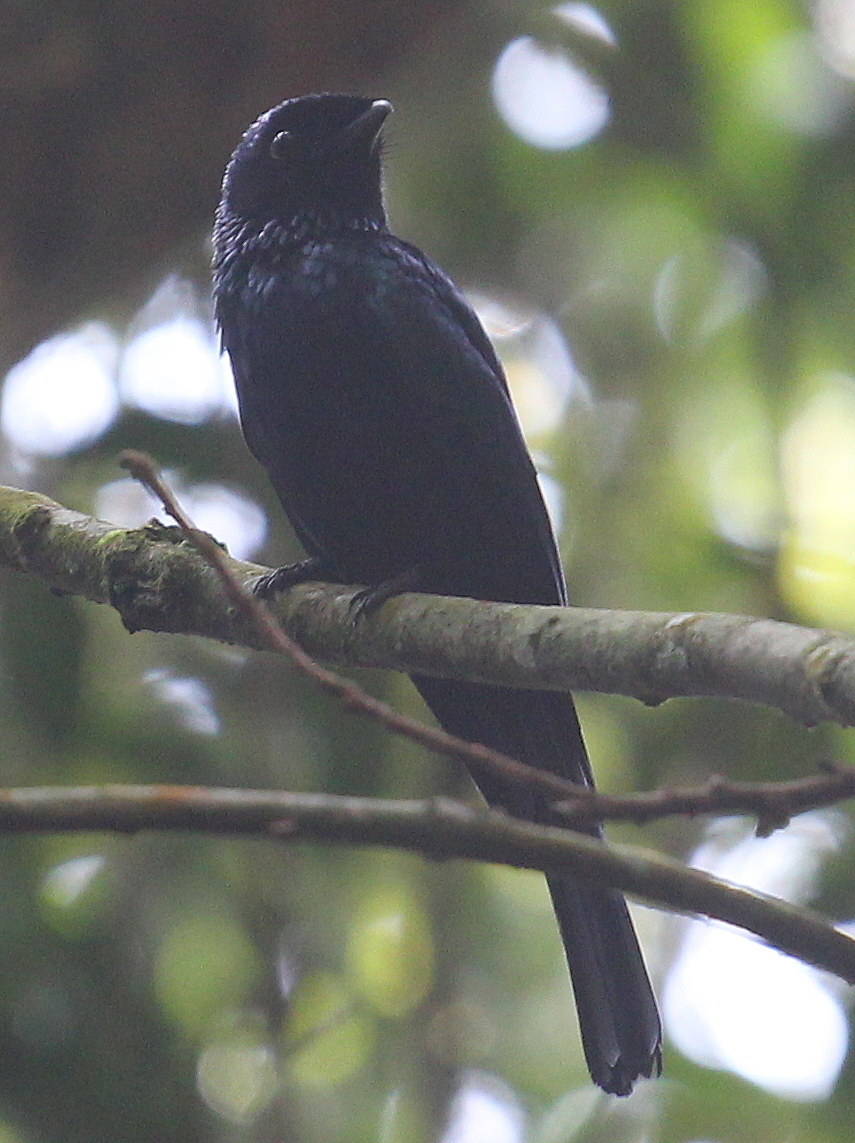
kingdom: Animalia
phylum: Chordata
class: Aves
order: Passeriformes
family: Dicruridae
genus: Dicrurus
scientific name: Dicrurus remifer
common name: Lesser racket-tailed drongo
